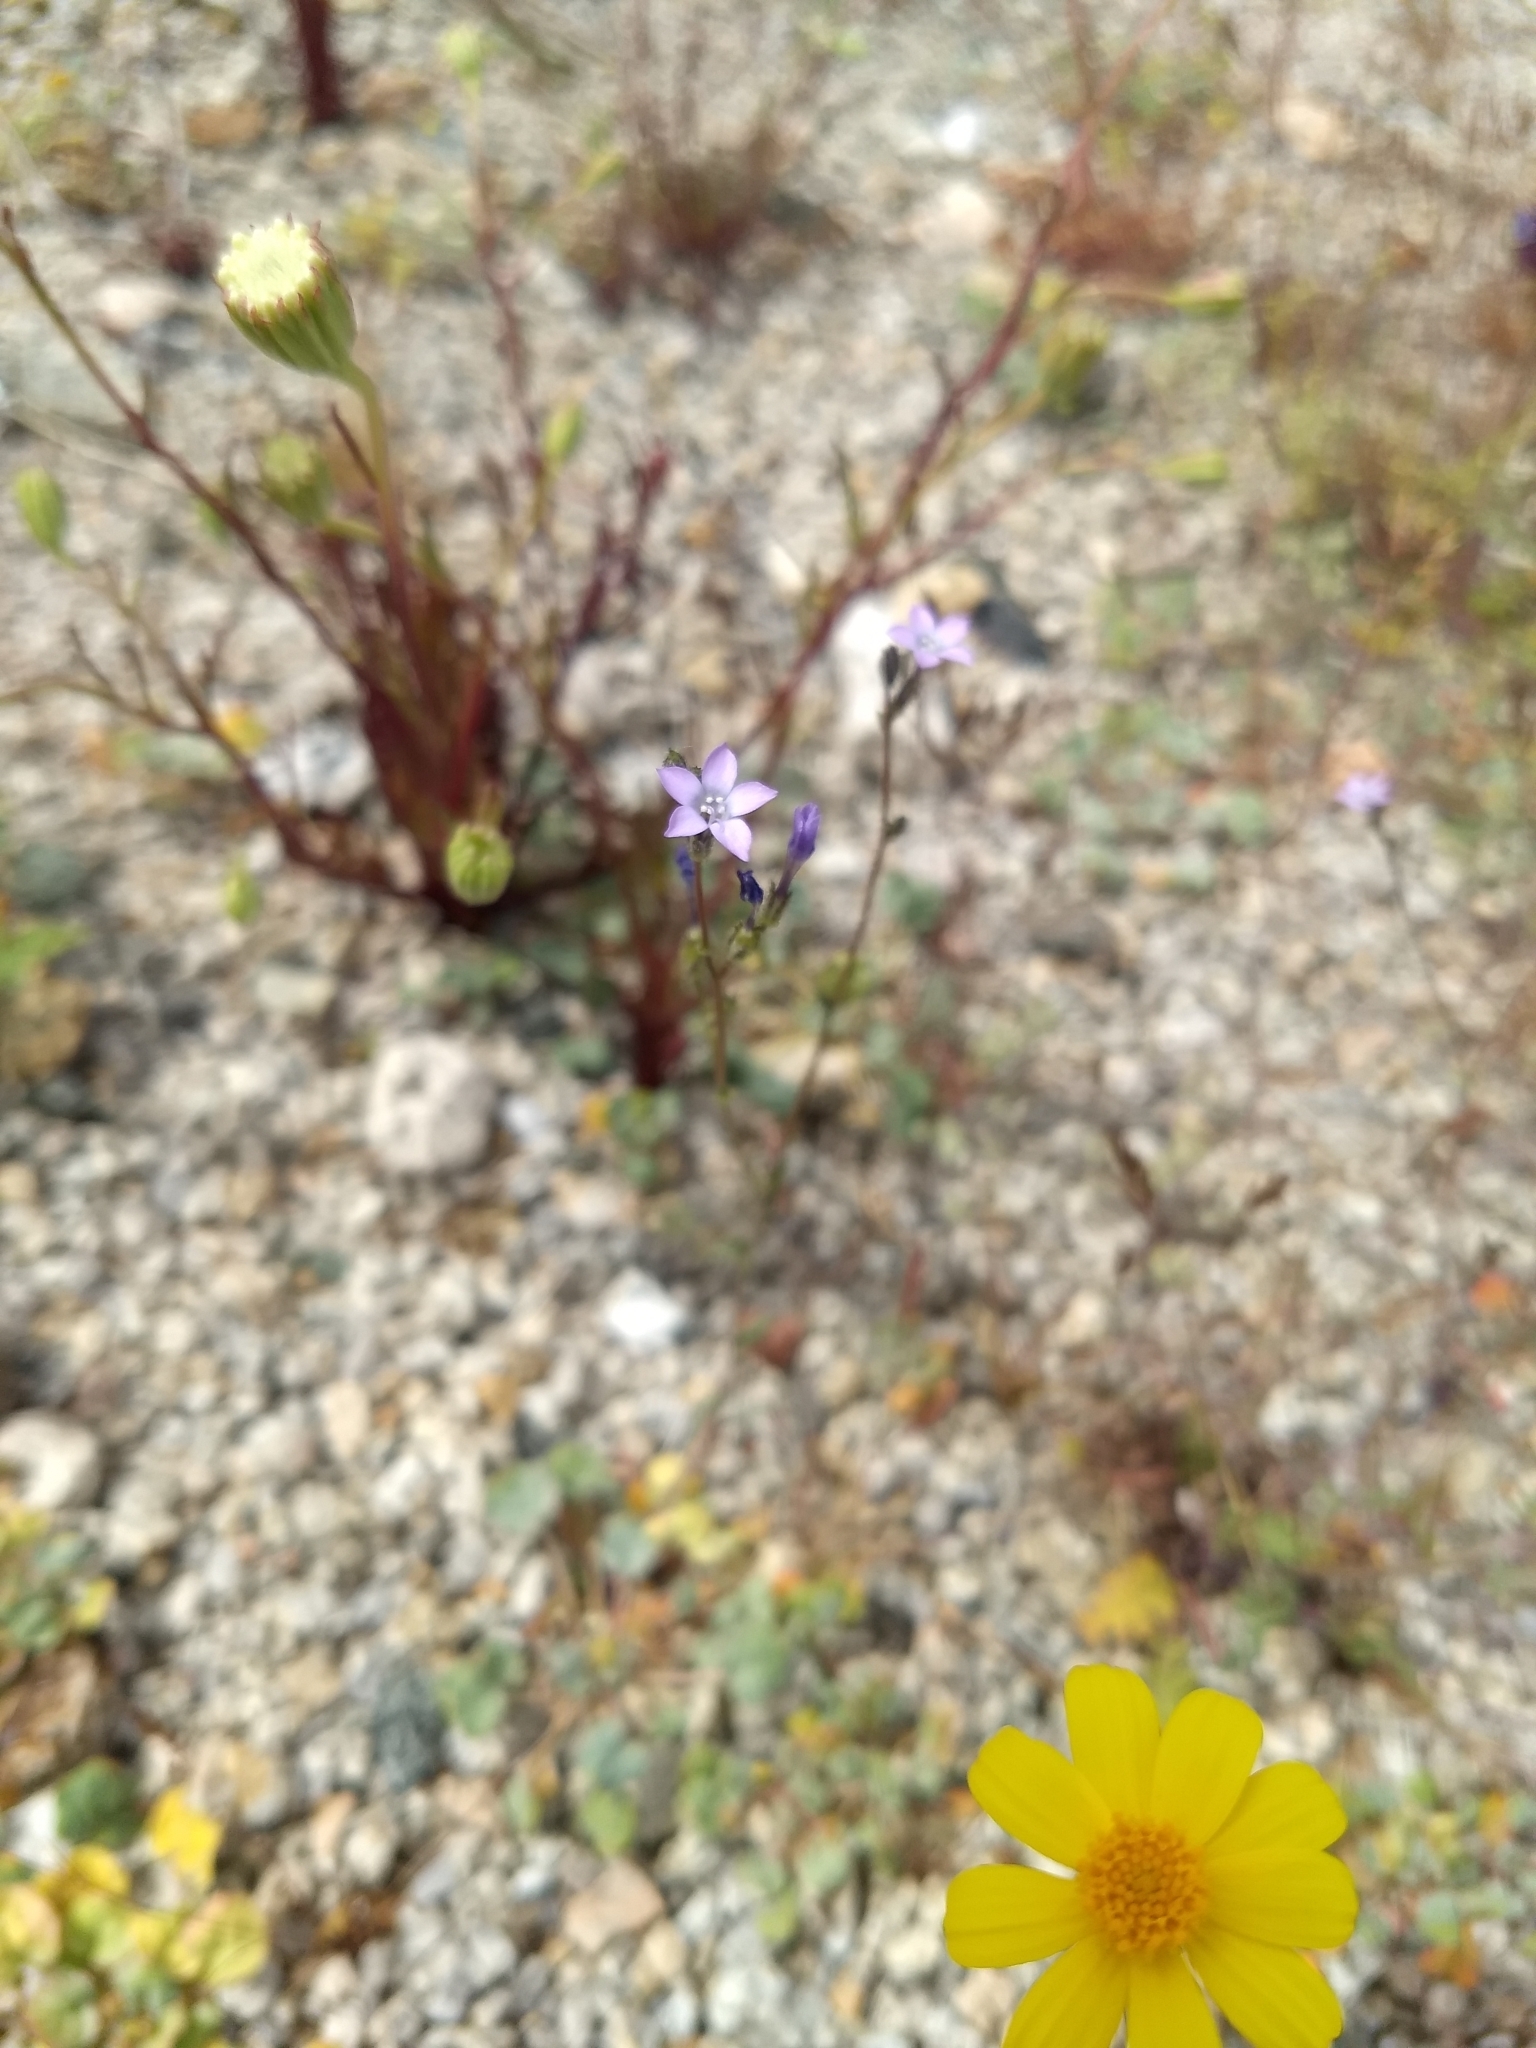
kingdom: Plantae
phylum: Tracheophyta
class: Magnoliopsida
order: Ericales
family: Polemoniaceae
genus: Gilia
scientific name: Gilia sinuata
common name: Rosy gilia
